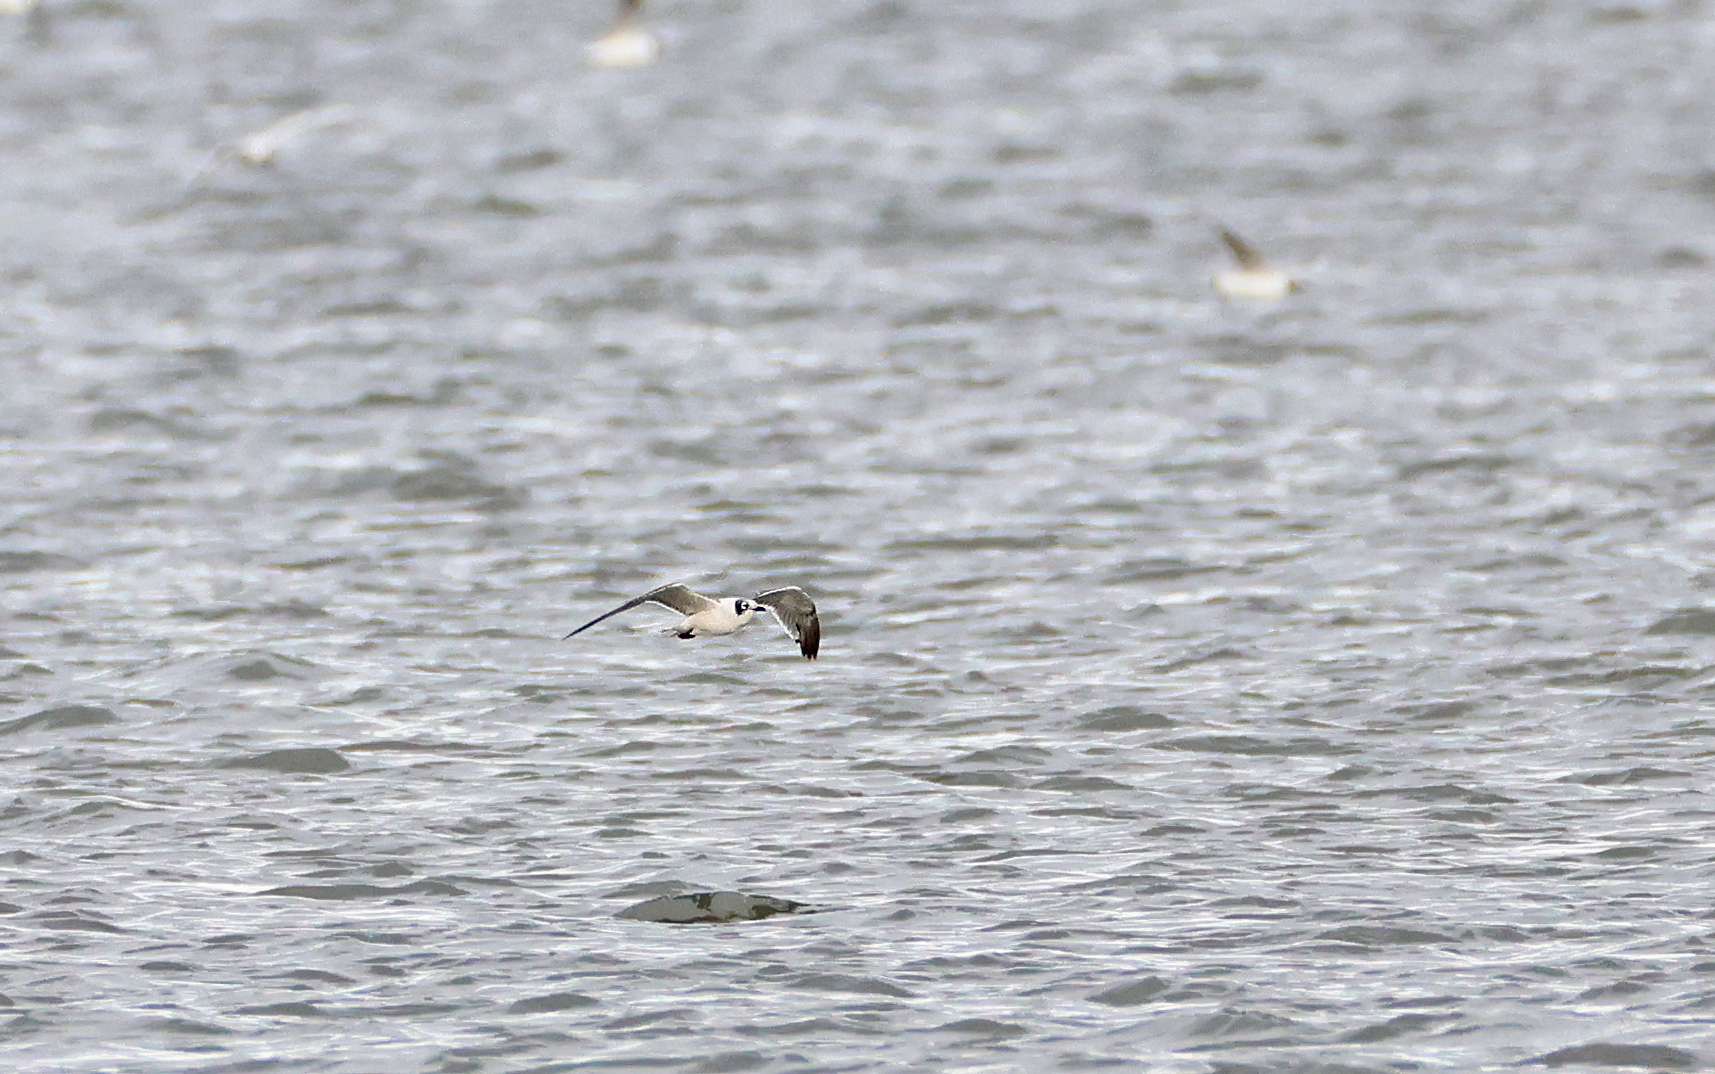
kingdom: Animalia
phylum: Chordata
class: Aves
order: Charadriiformes
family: Laridae
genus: Leucophaeus
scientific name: Leucophaeus pipixcan
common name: Franklin's gull
